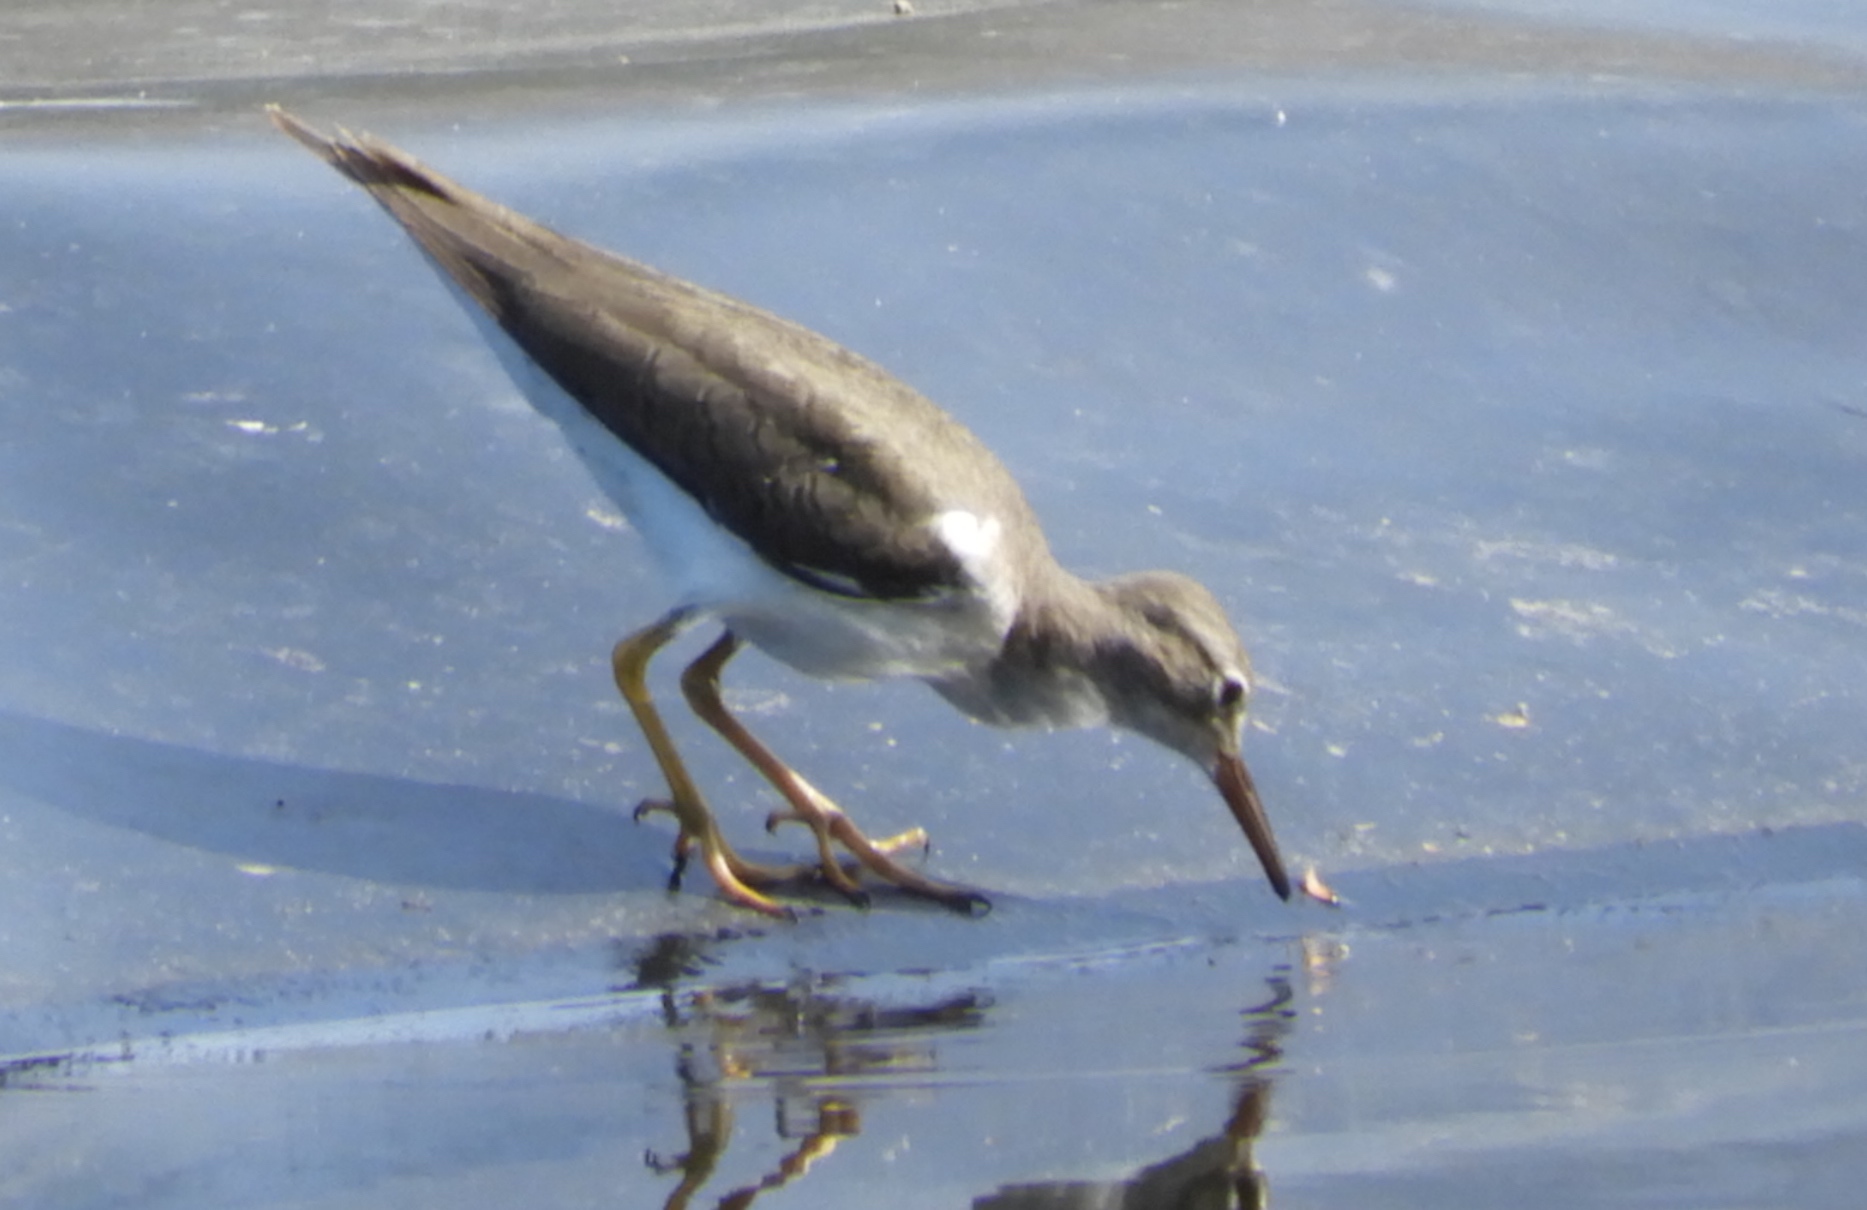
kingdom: Animalia
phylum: Chordata
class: Aves
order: Charadriiformes
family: Scolopacidae
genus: Actitis
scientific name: Actitis macularius
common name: Spotted sandpiper
